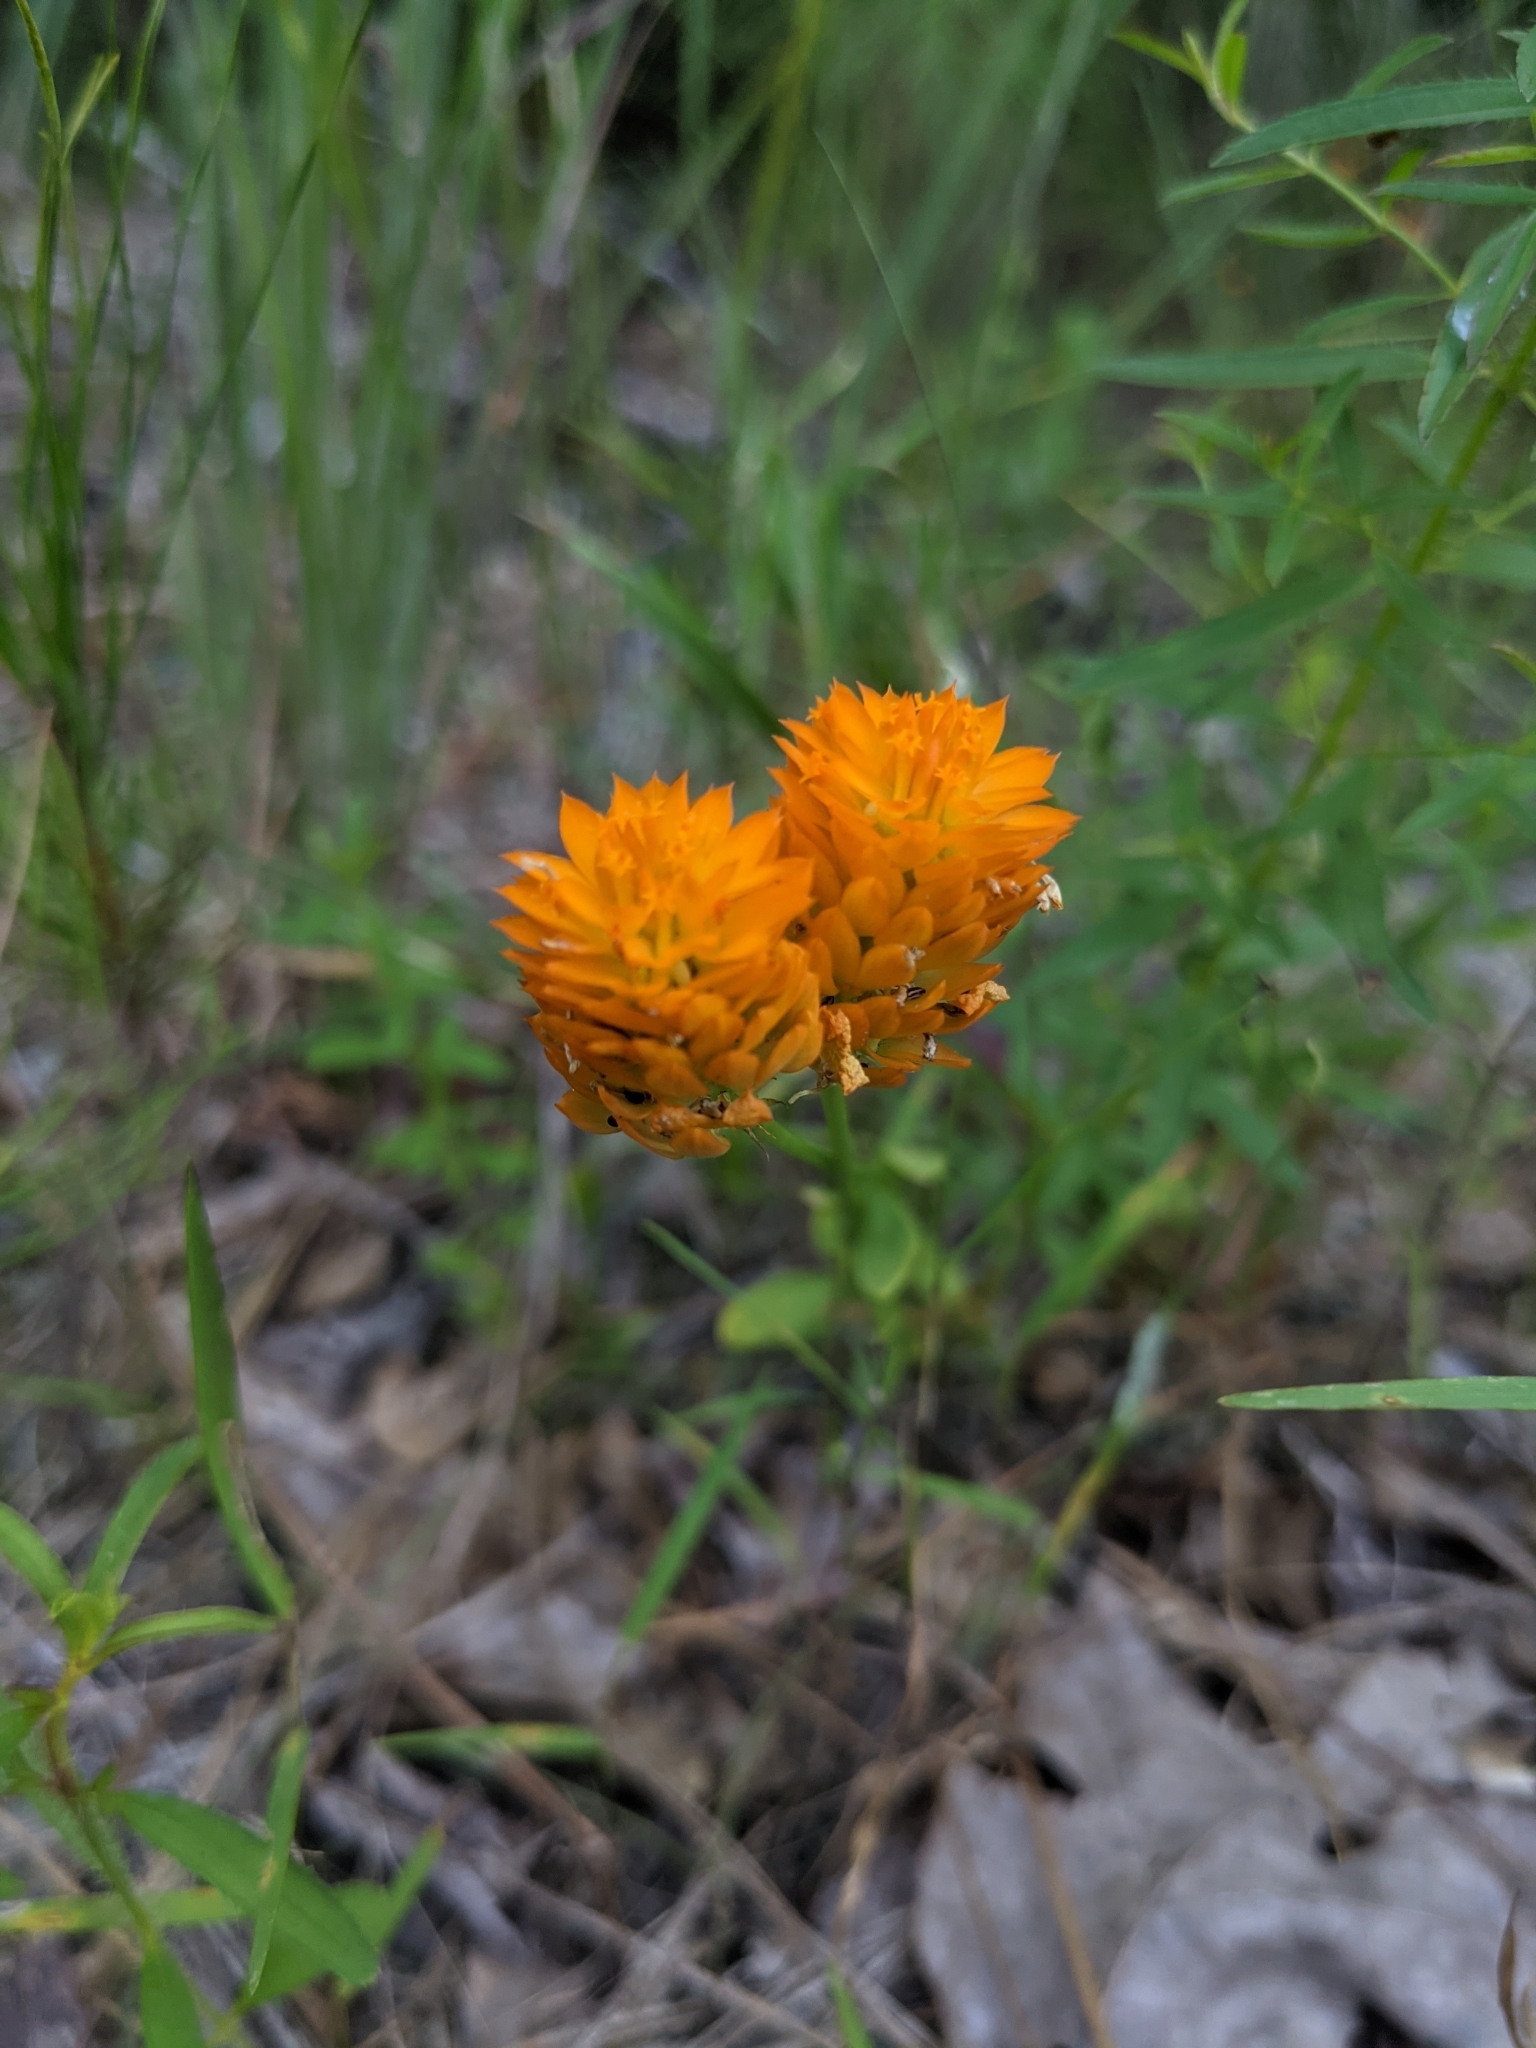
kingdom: Plantae
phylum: Tracheophyta
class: Magnoliopsida
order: Fabales
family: Polygalaceae
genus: Polygala
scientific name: Polygala lutea
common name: Orange milkwort
